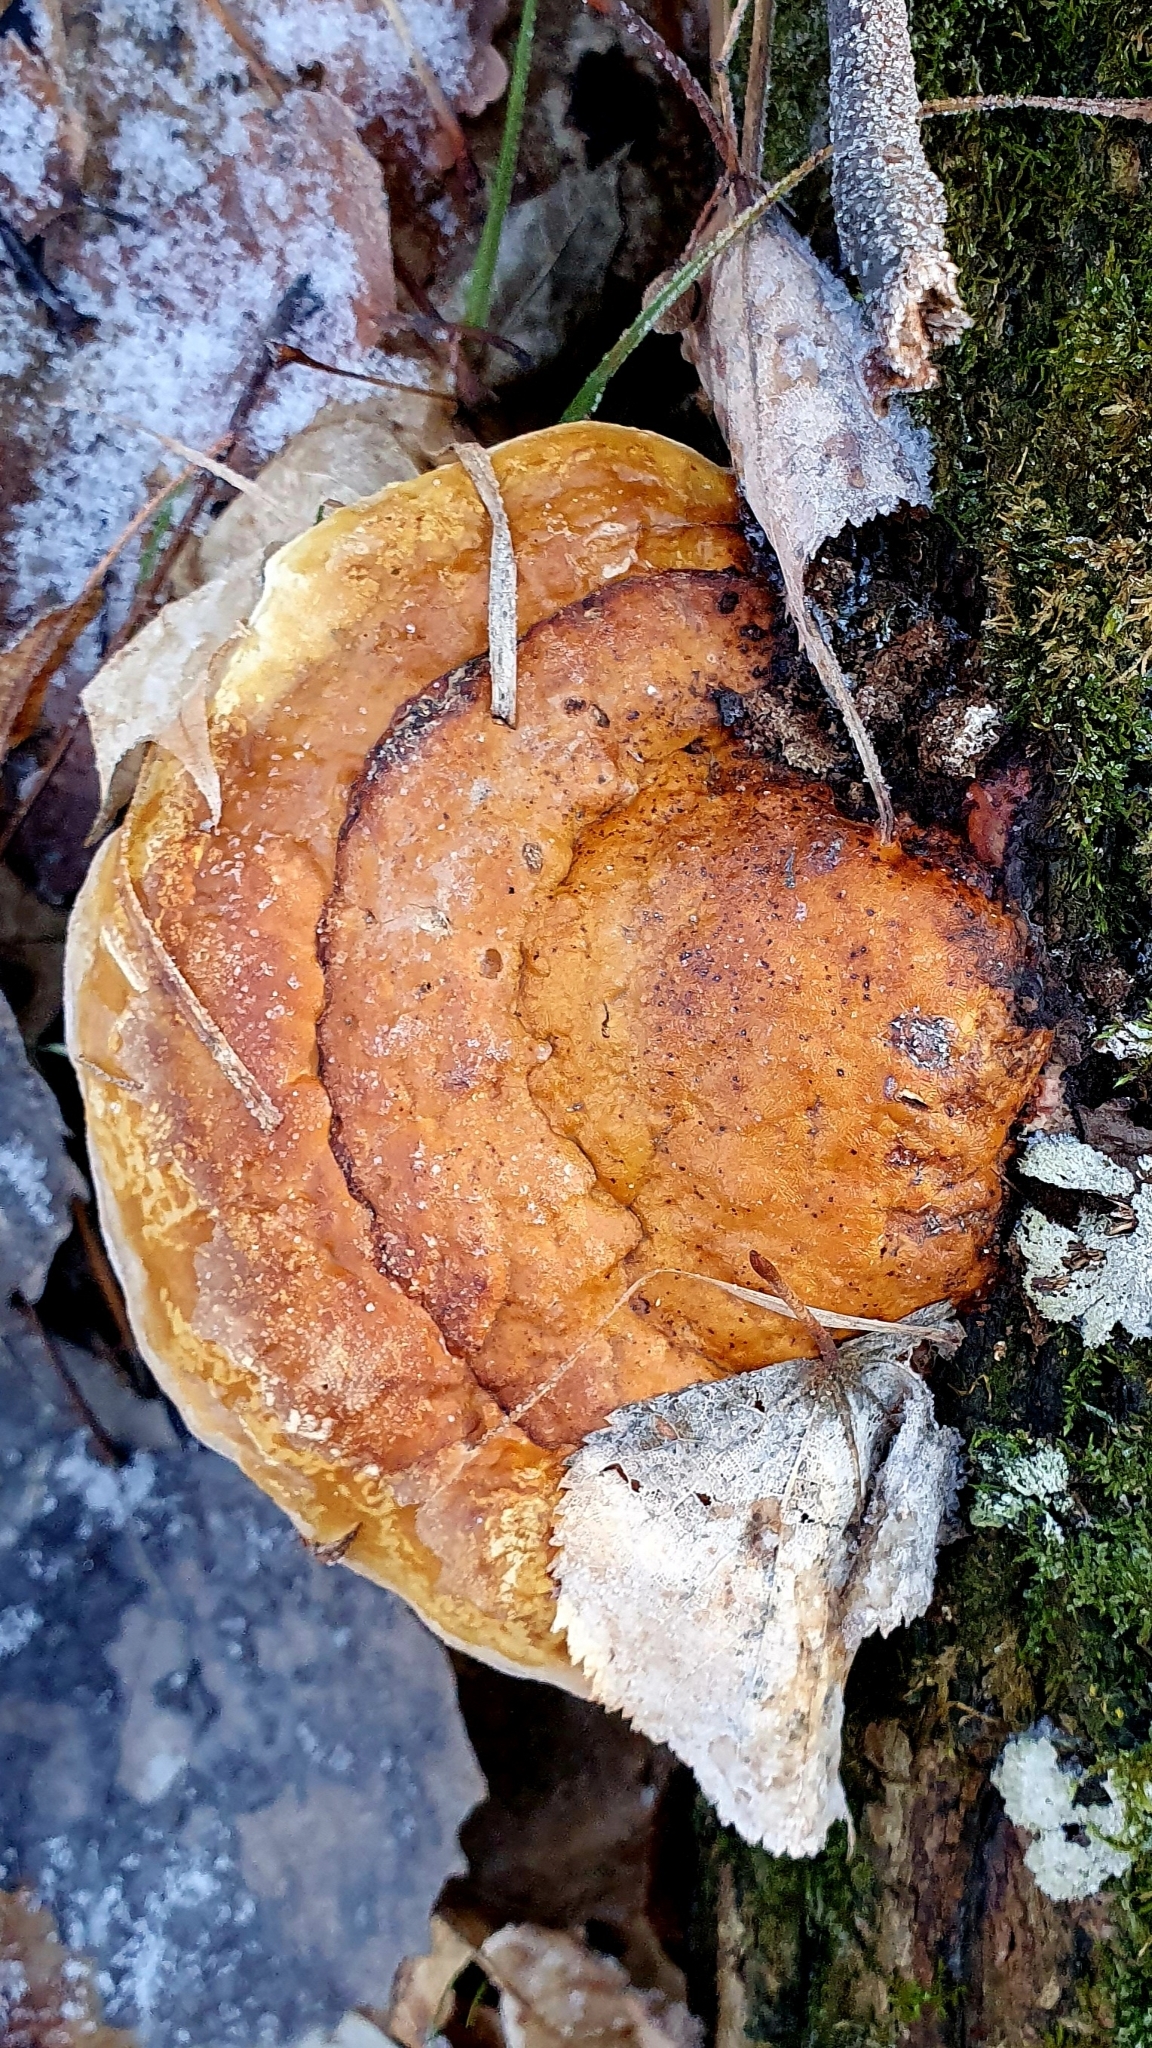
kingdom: Fungi
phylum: Basidiomycota
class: Agaricomycetes
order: Polyporales
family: Fomitopsidaceae
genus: Fomitopsis
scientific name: Fomitopsis pinicola
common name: Red-belted bracket
